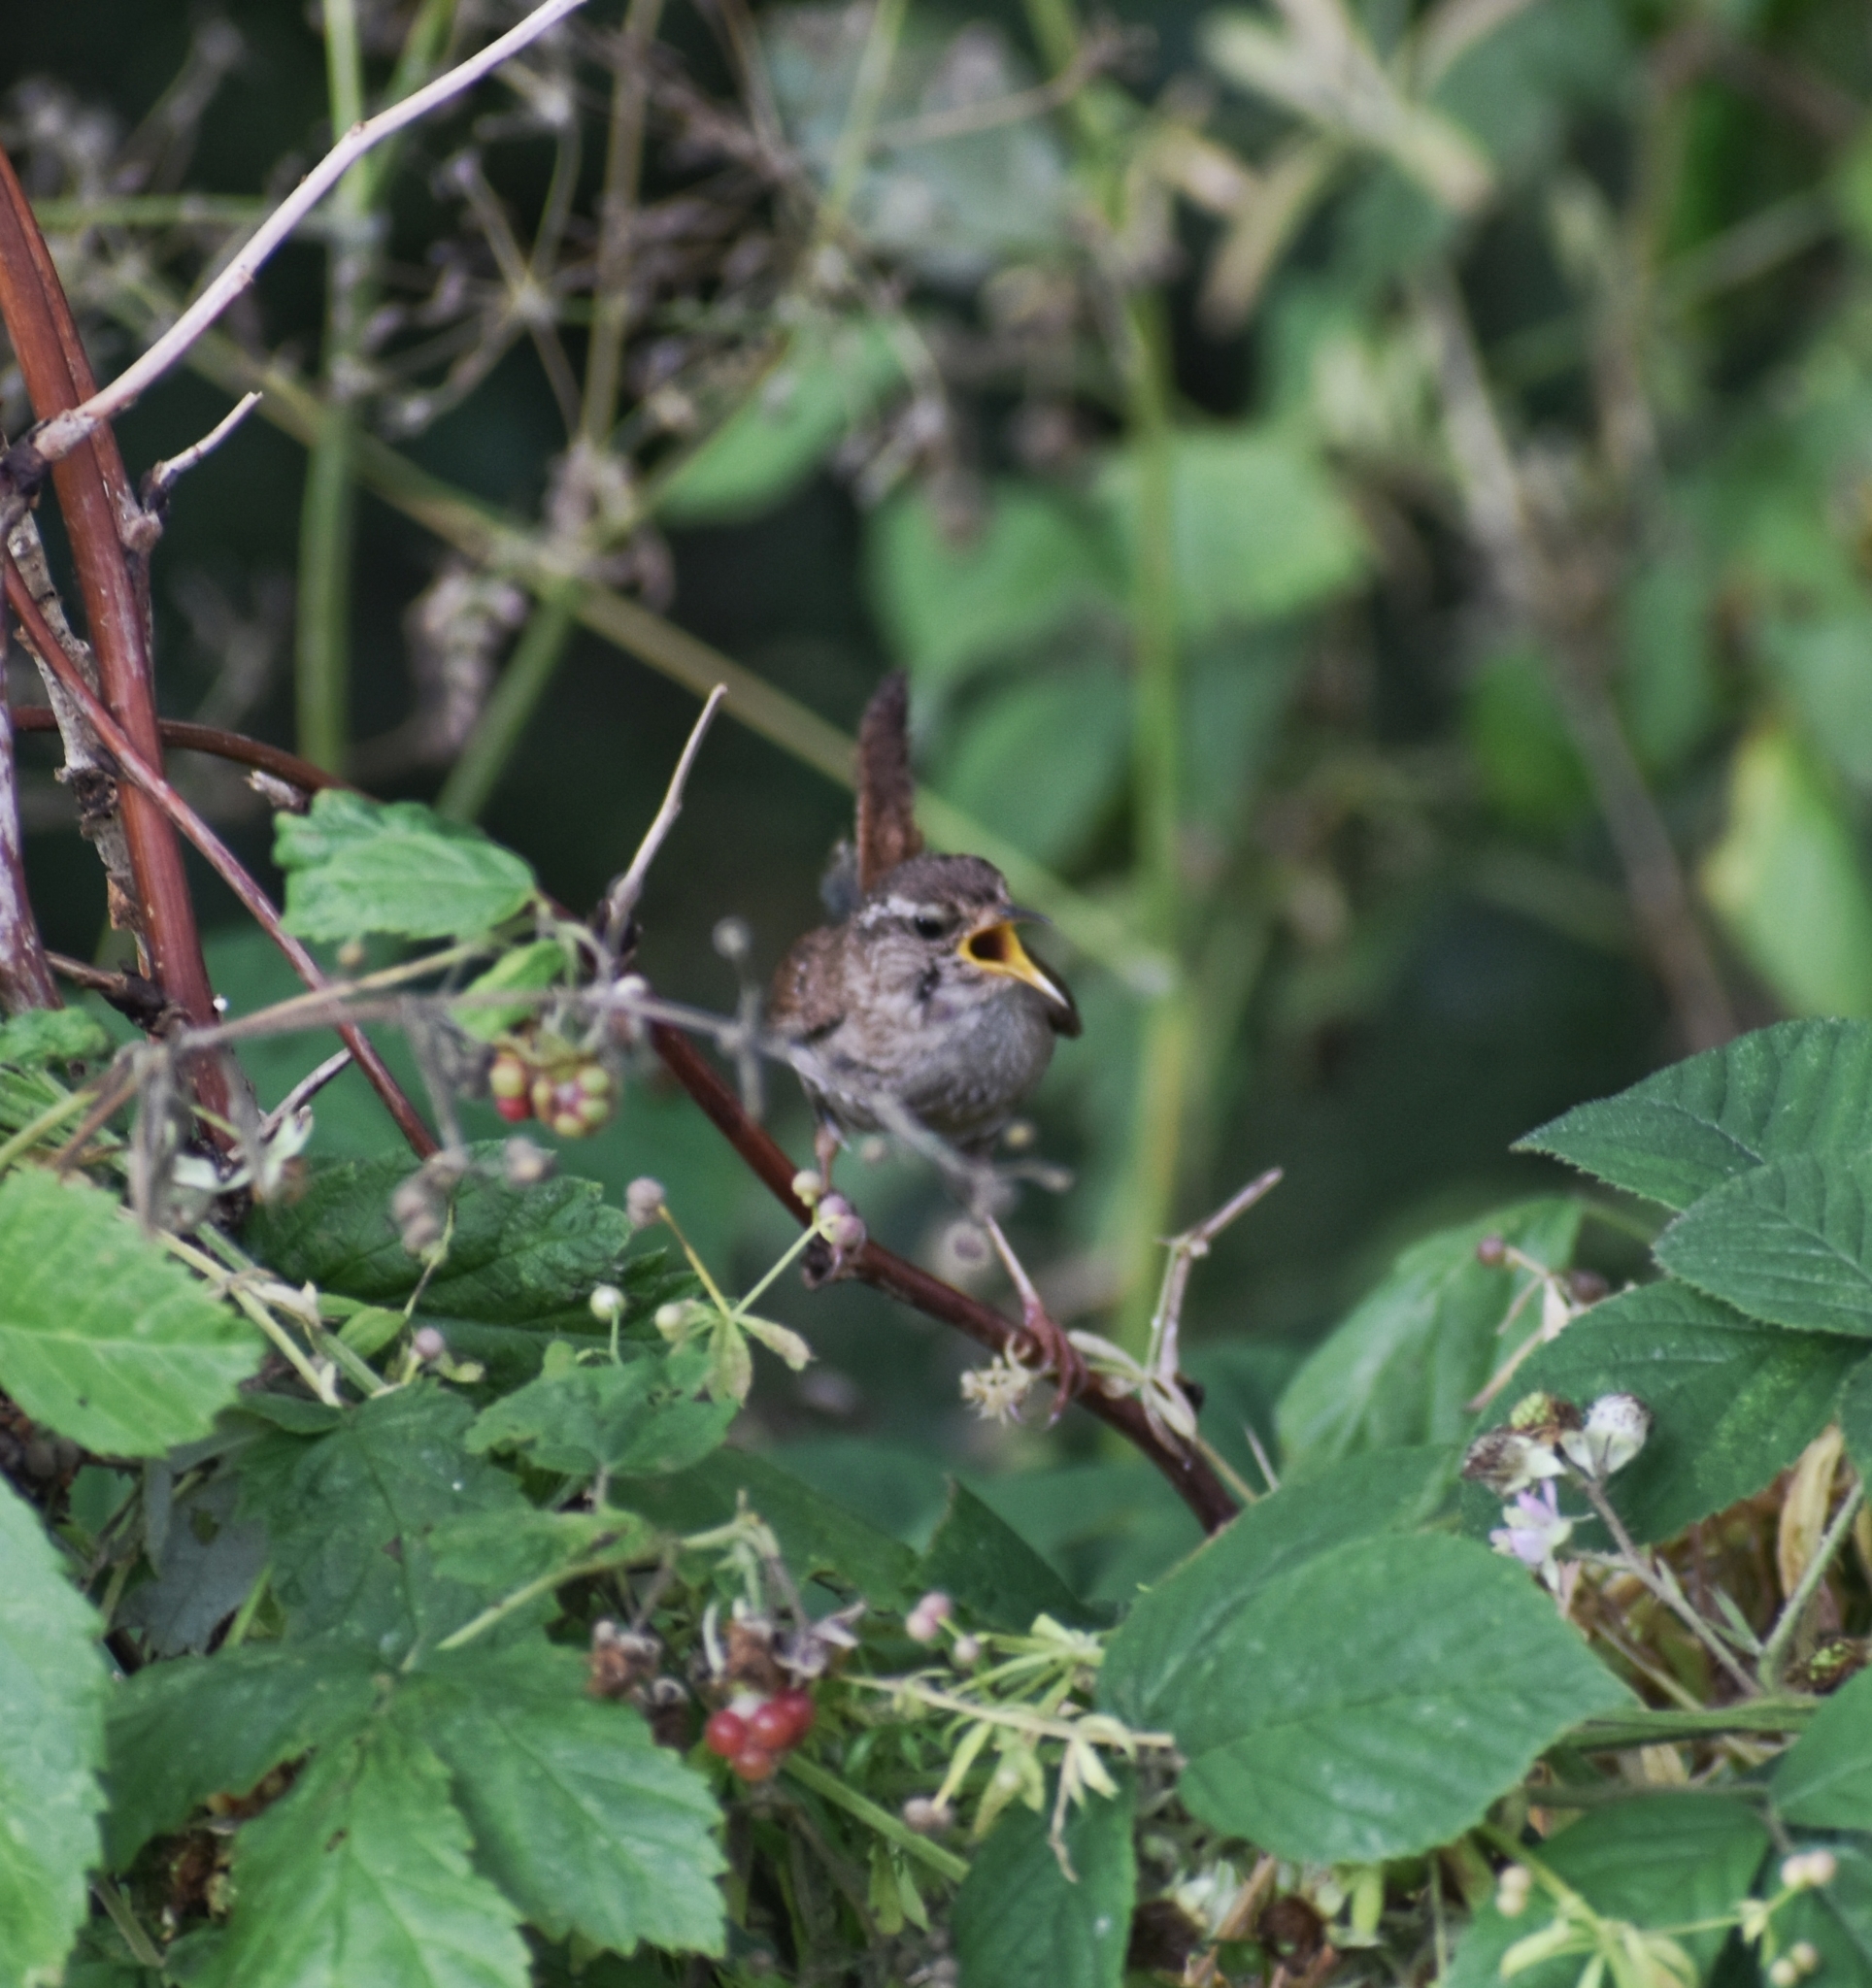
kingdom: Animalia
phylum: Chordata
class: Aves
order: Passeriformes
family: Troglodytidae
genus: Troglodytes
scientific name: Troglodytes troglodytes
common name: Eurasian wren
